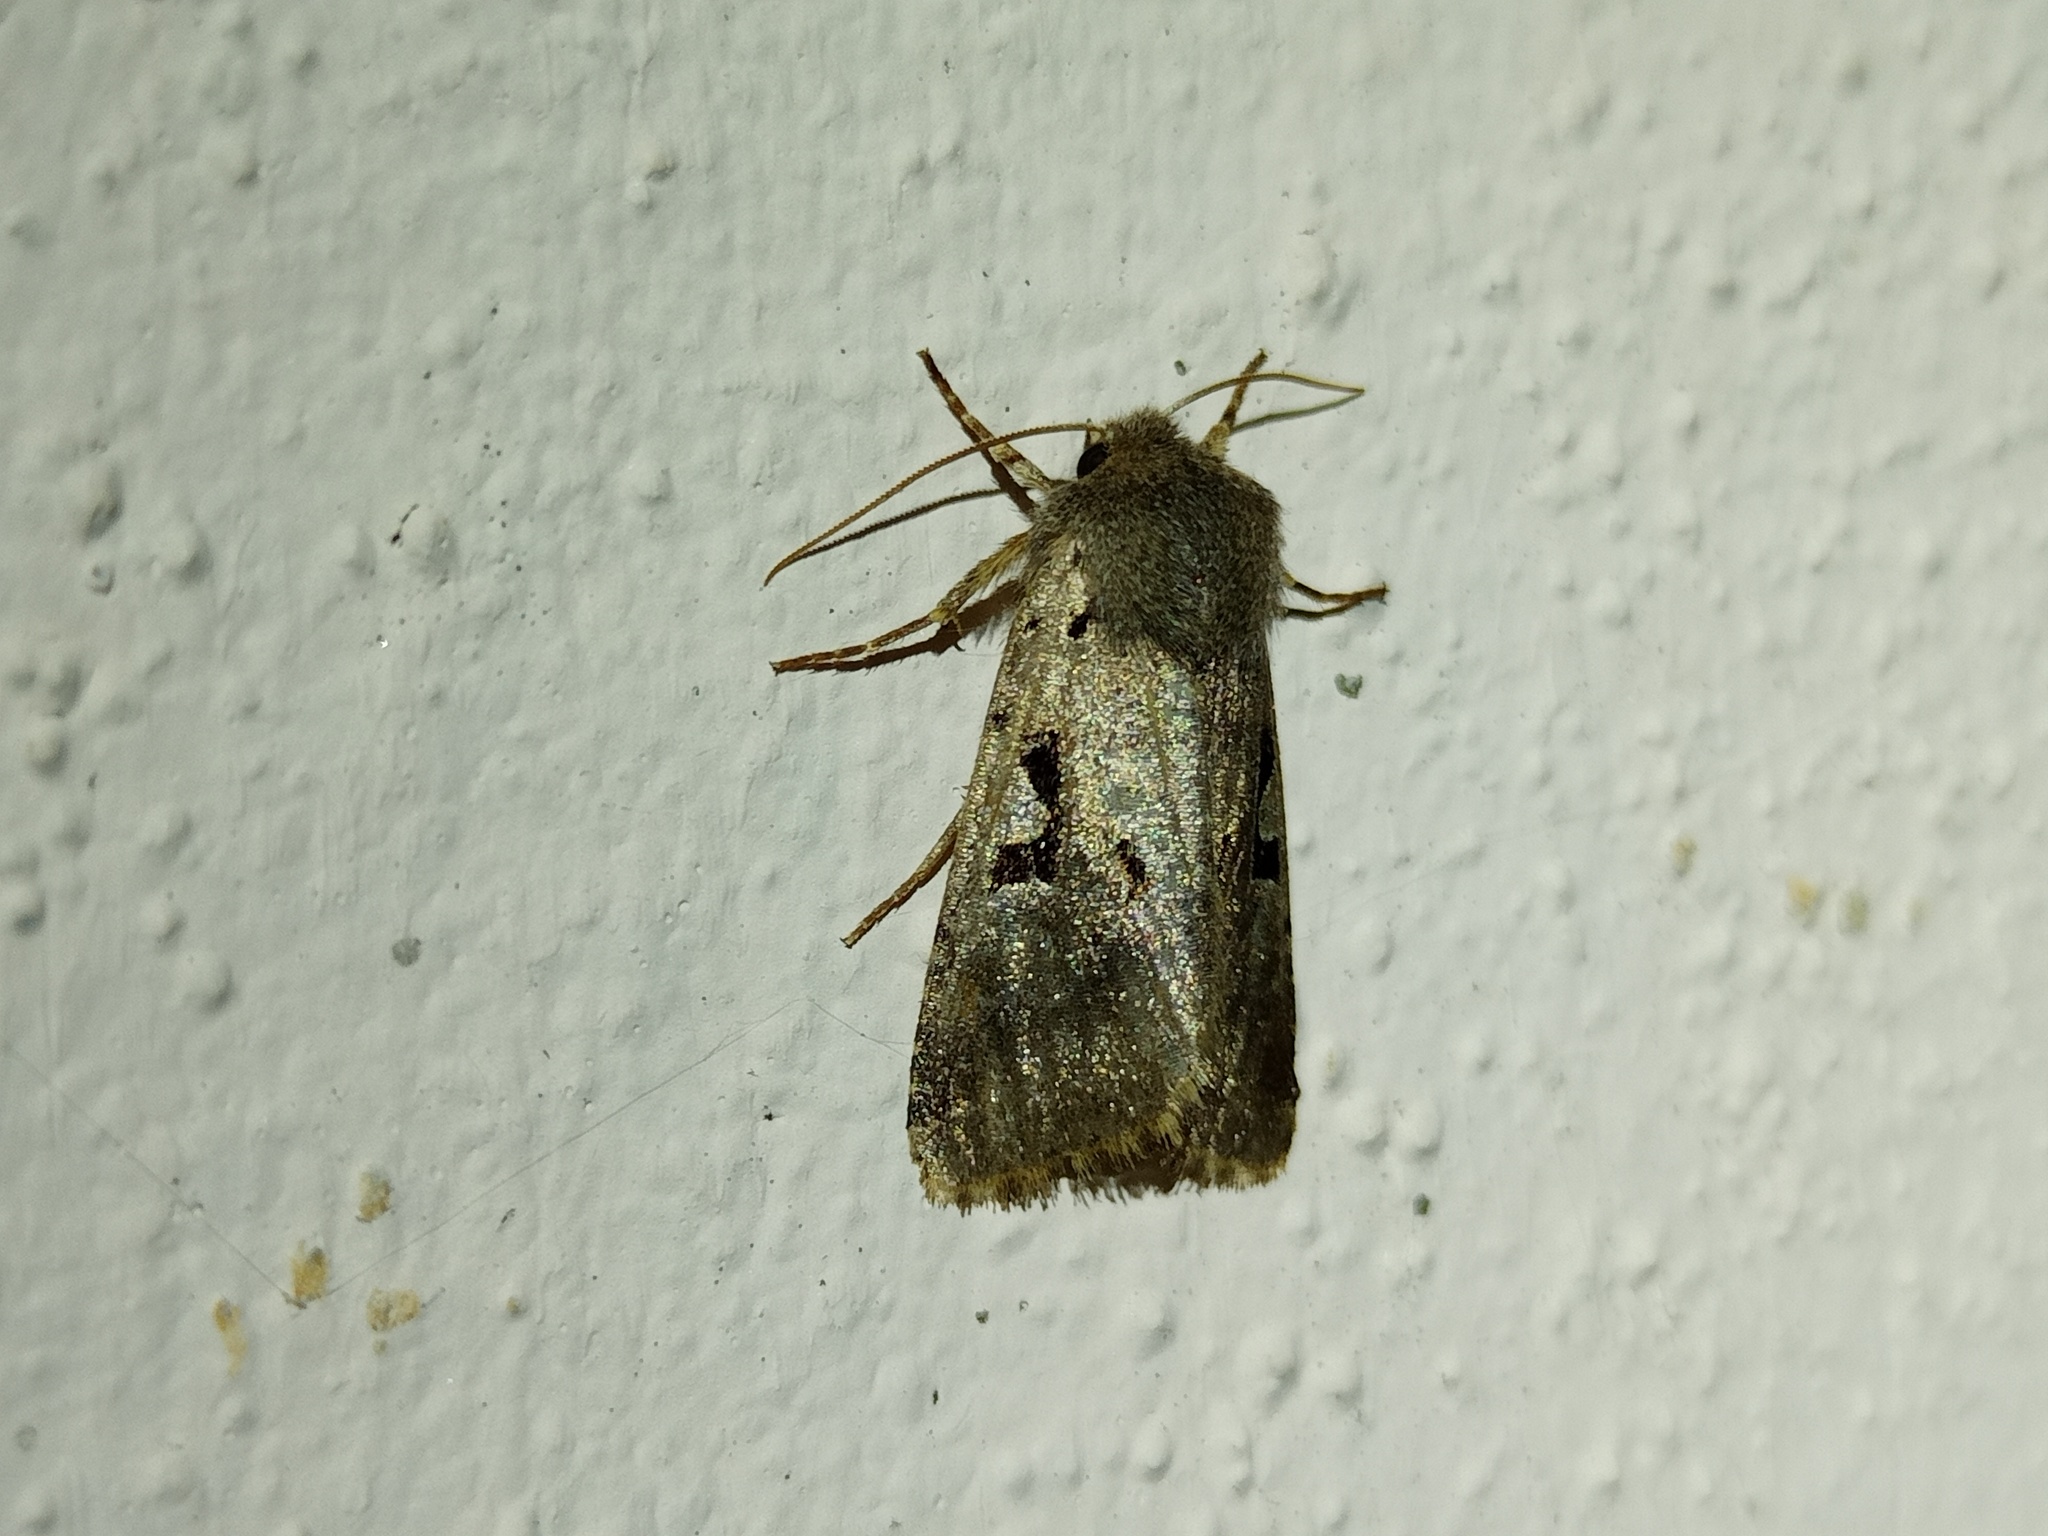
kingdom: Animalia
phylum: Arthropoda
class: Insecta
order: Lepidoptera
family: Noctuidae
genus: Orthosia
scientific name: Orthosia gothica
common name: Hebrew character
